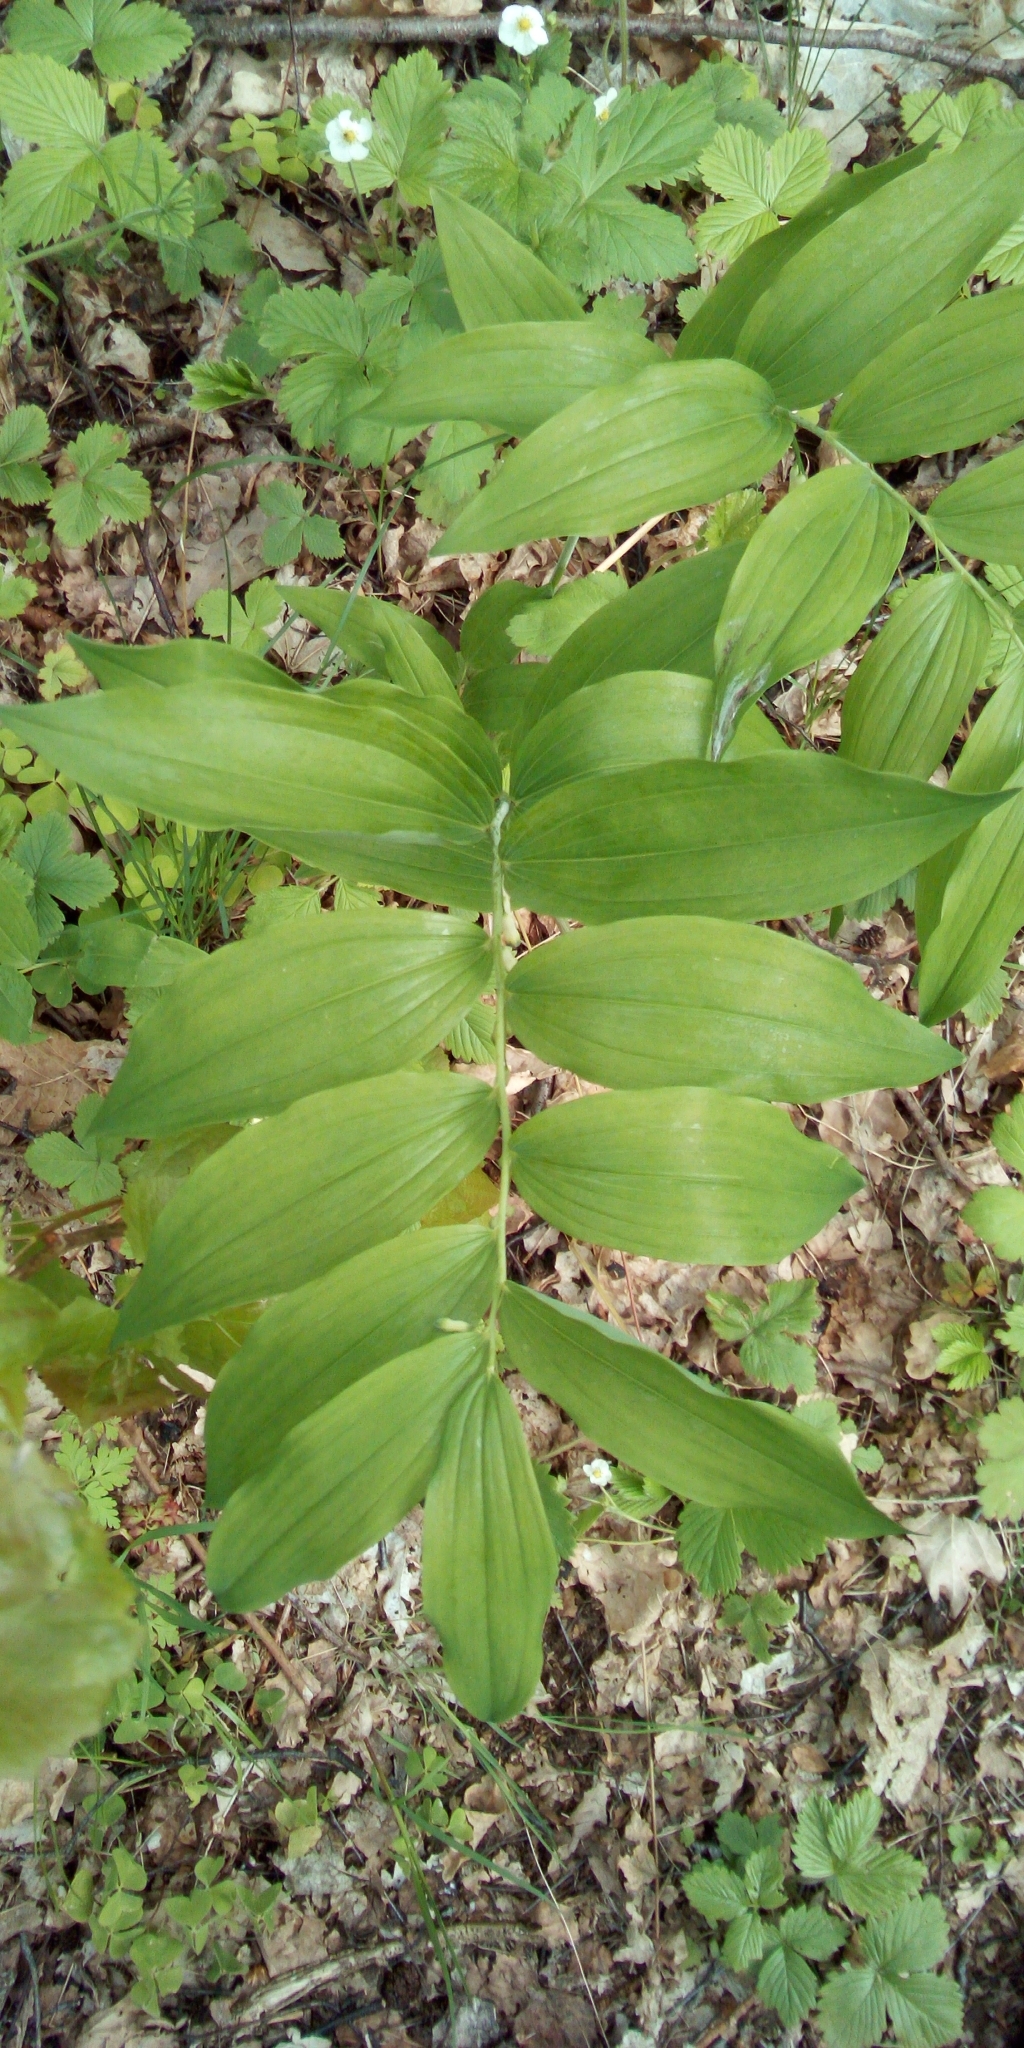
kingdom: Plantae
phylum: Tracheophyta
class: Liliopsida
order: Asparagales
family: Asparagaceae
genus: Polygonatum
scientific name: Polygonatum multiflorum
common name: Solomon's-seal
